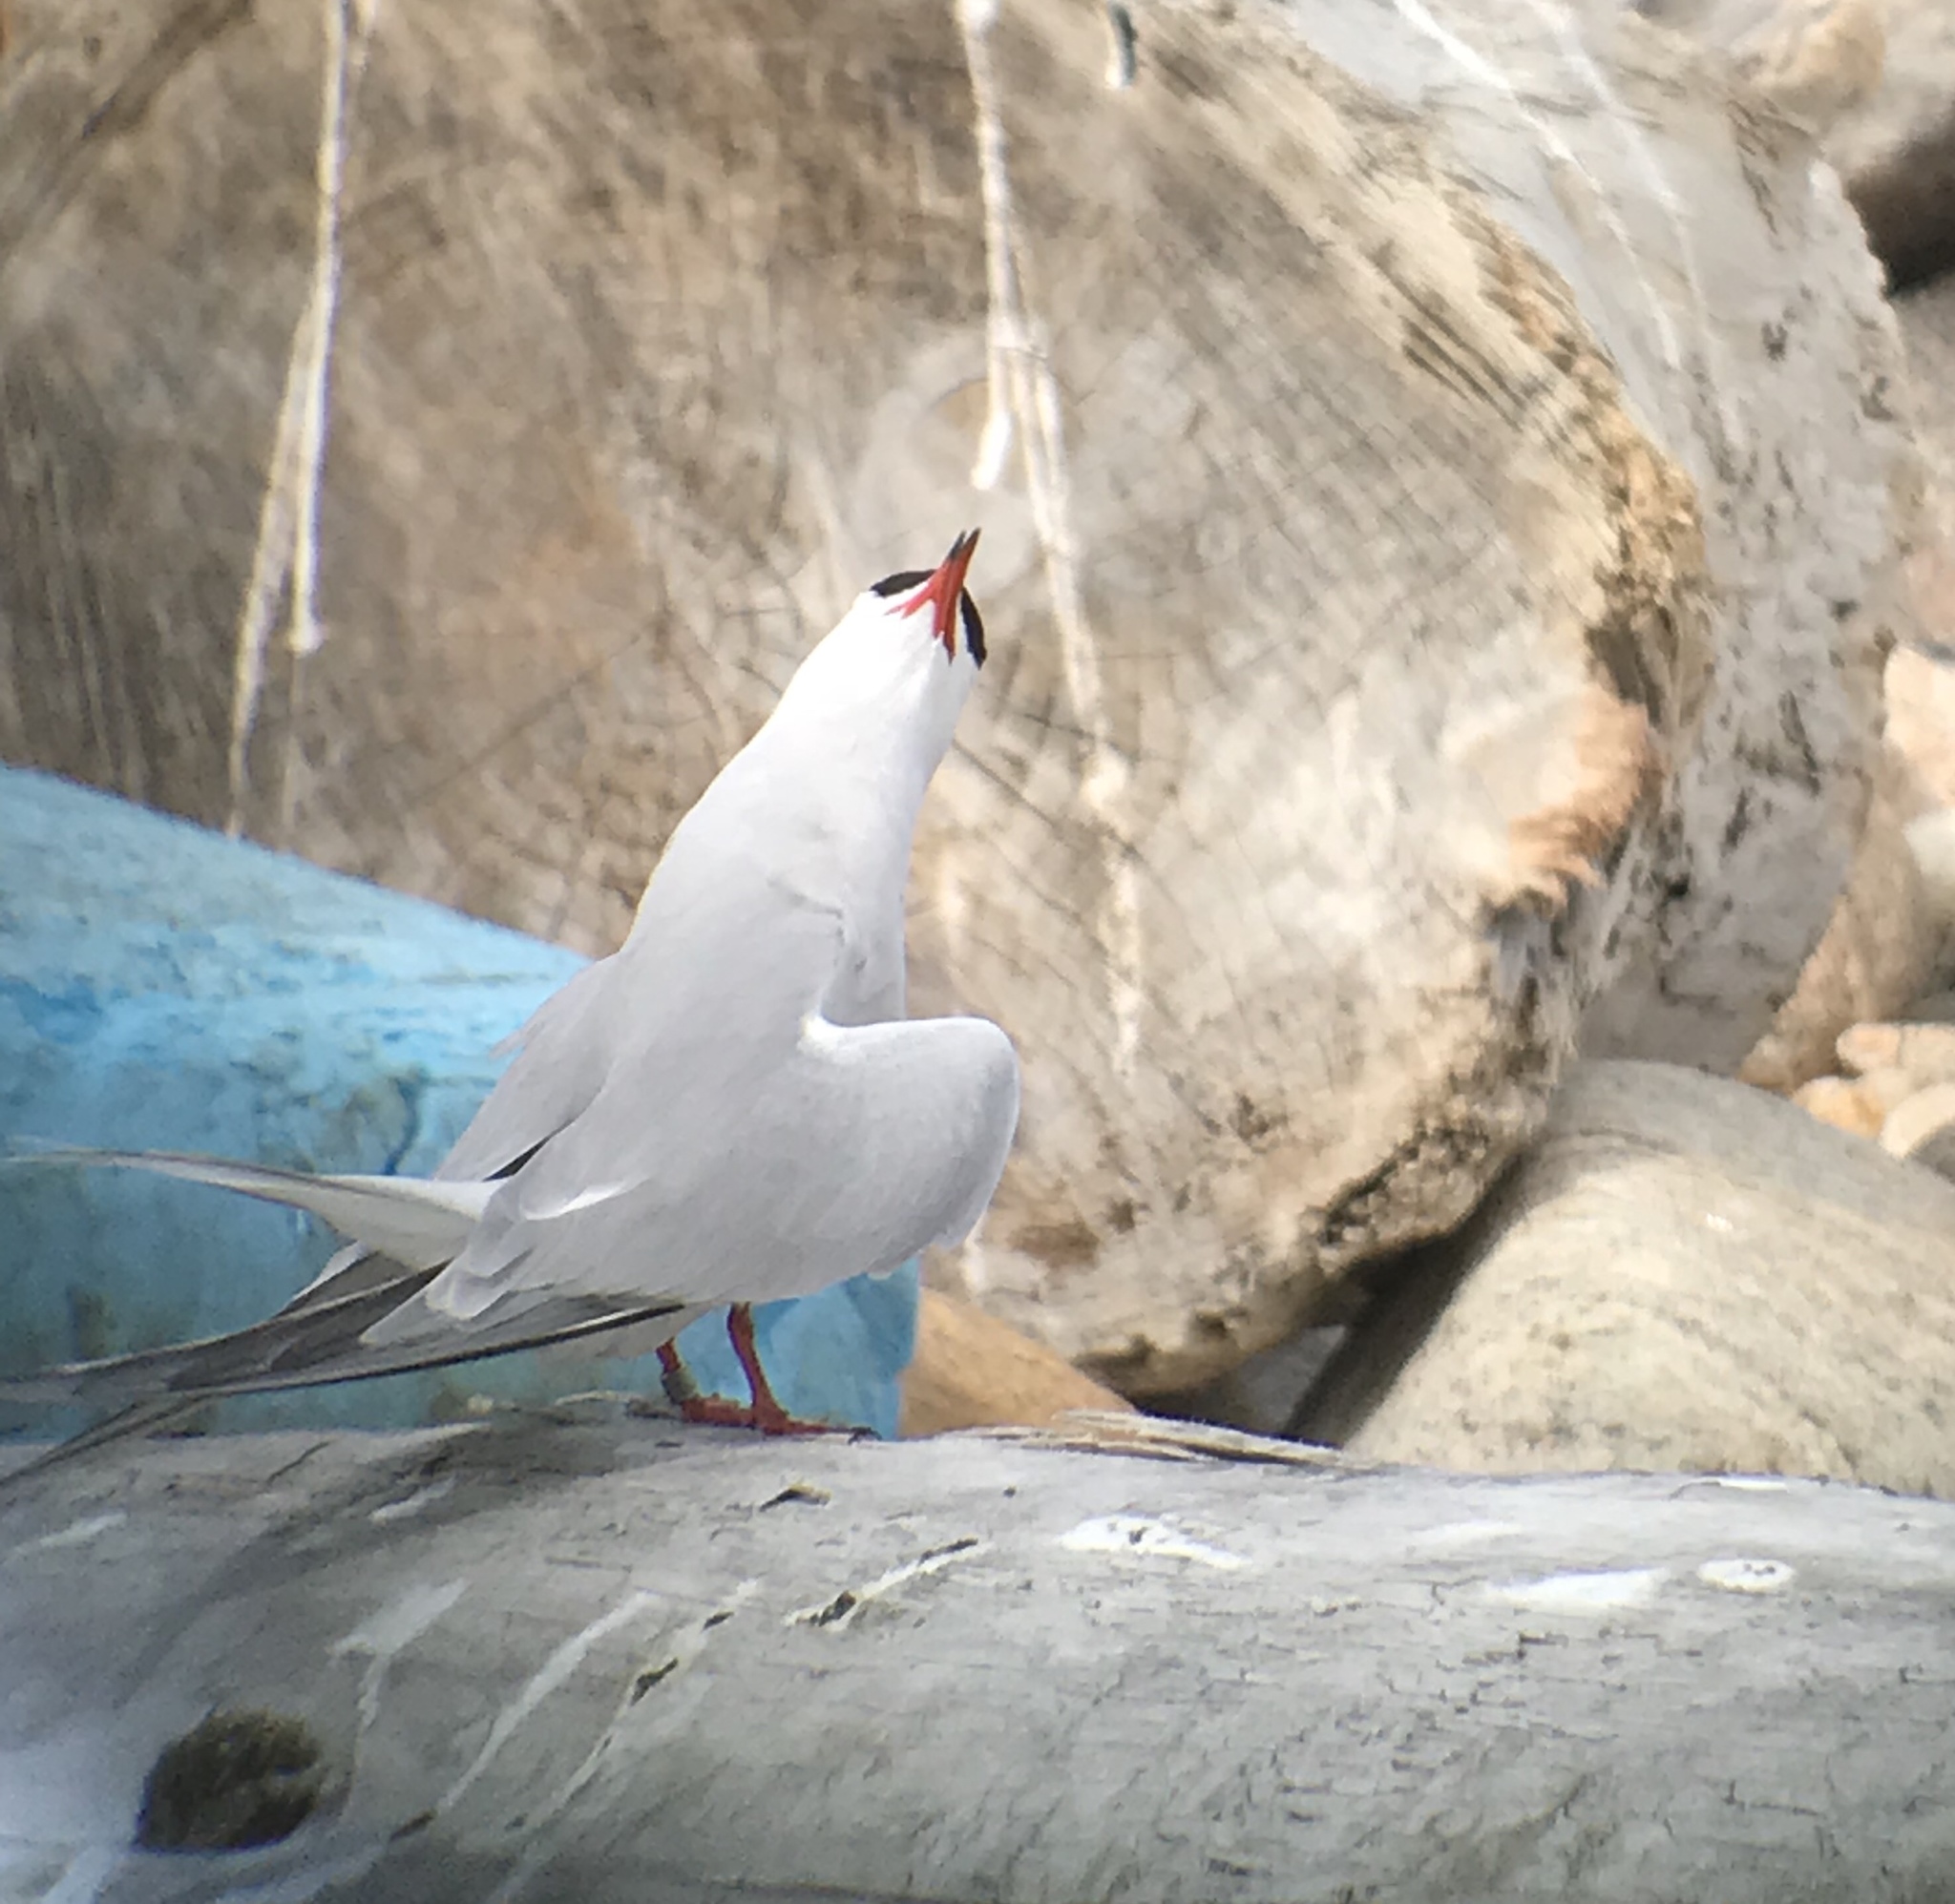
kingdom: Animalia
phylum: Chordata
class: Aves
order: Charadriiformes
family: Laridae
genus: Sterna
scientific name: Sterna hirundo
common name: Common tern
